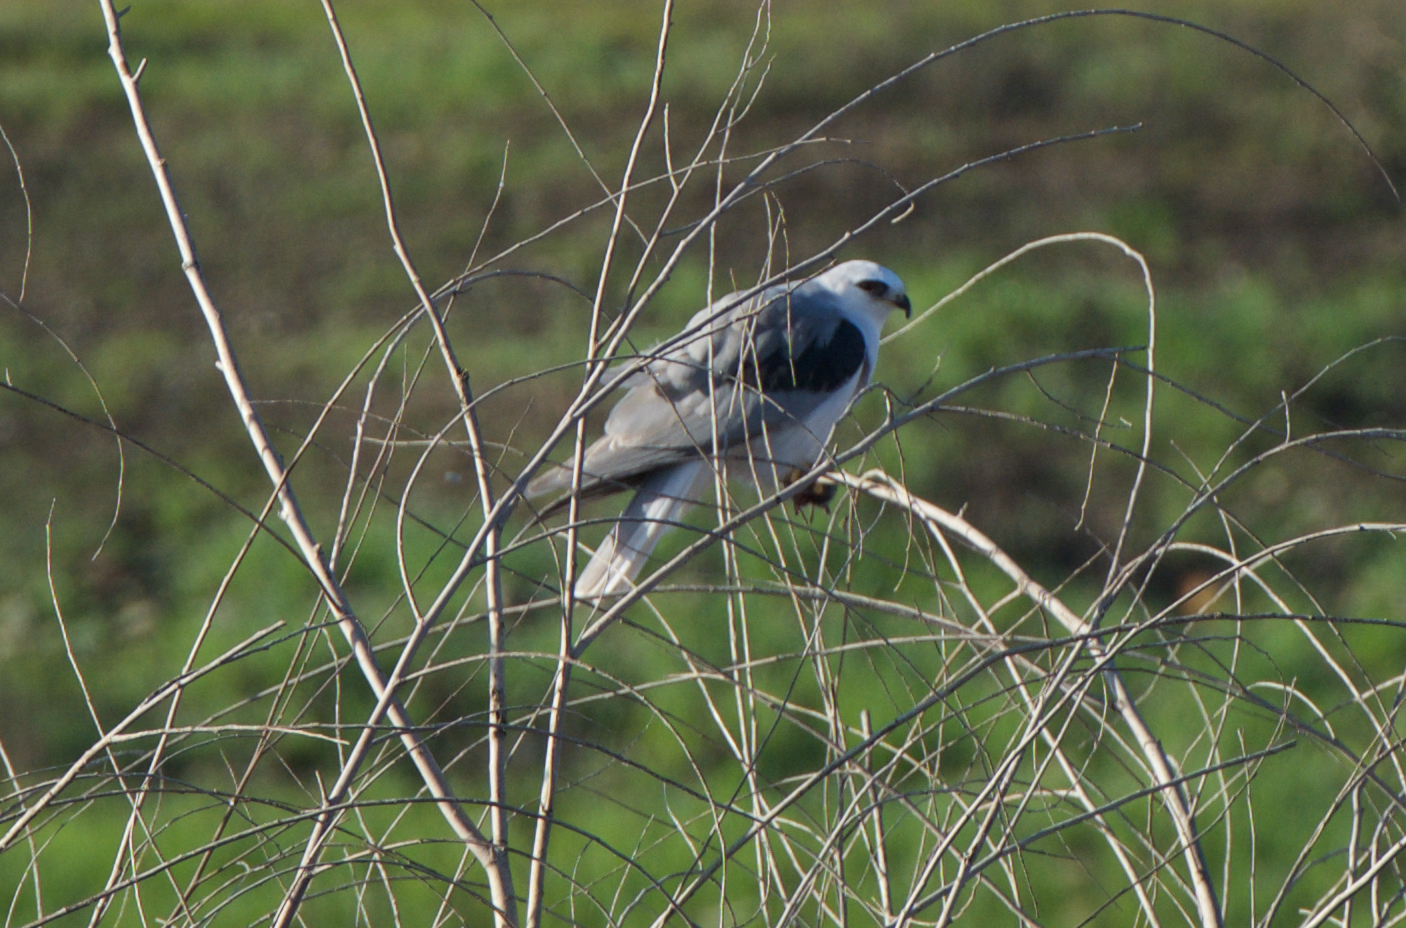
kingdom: Animalia
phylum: Chordata
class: Aves
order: Accipitriformes
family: Accipitridae
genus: Elanus
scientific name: Elanus leucurus
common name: White-tailed kite
